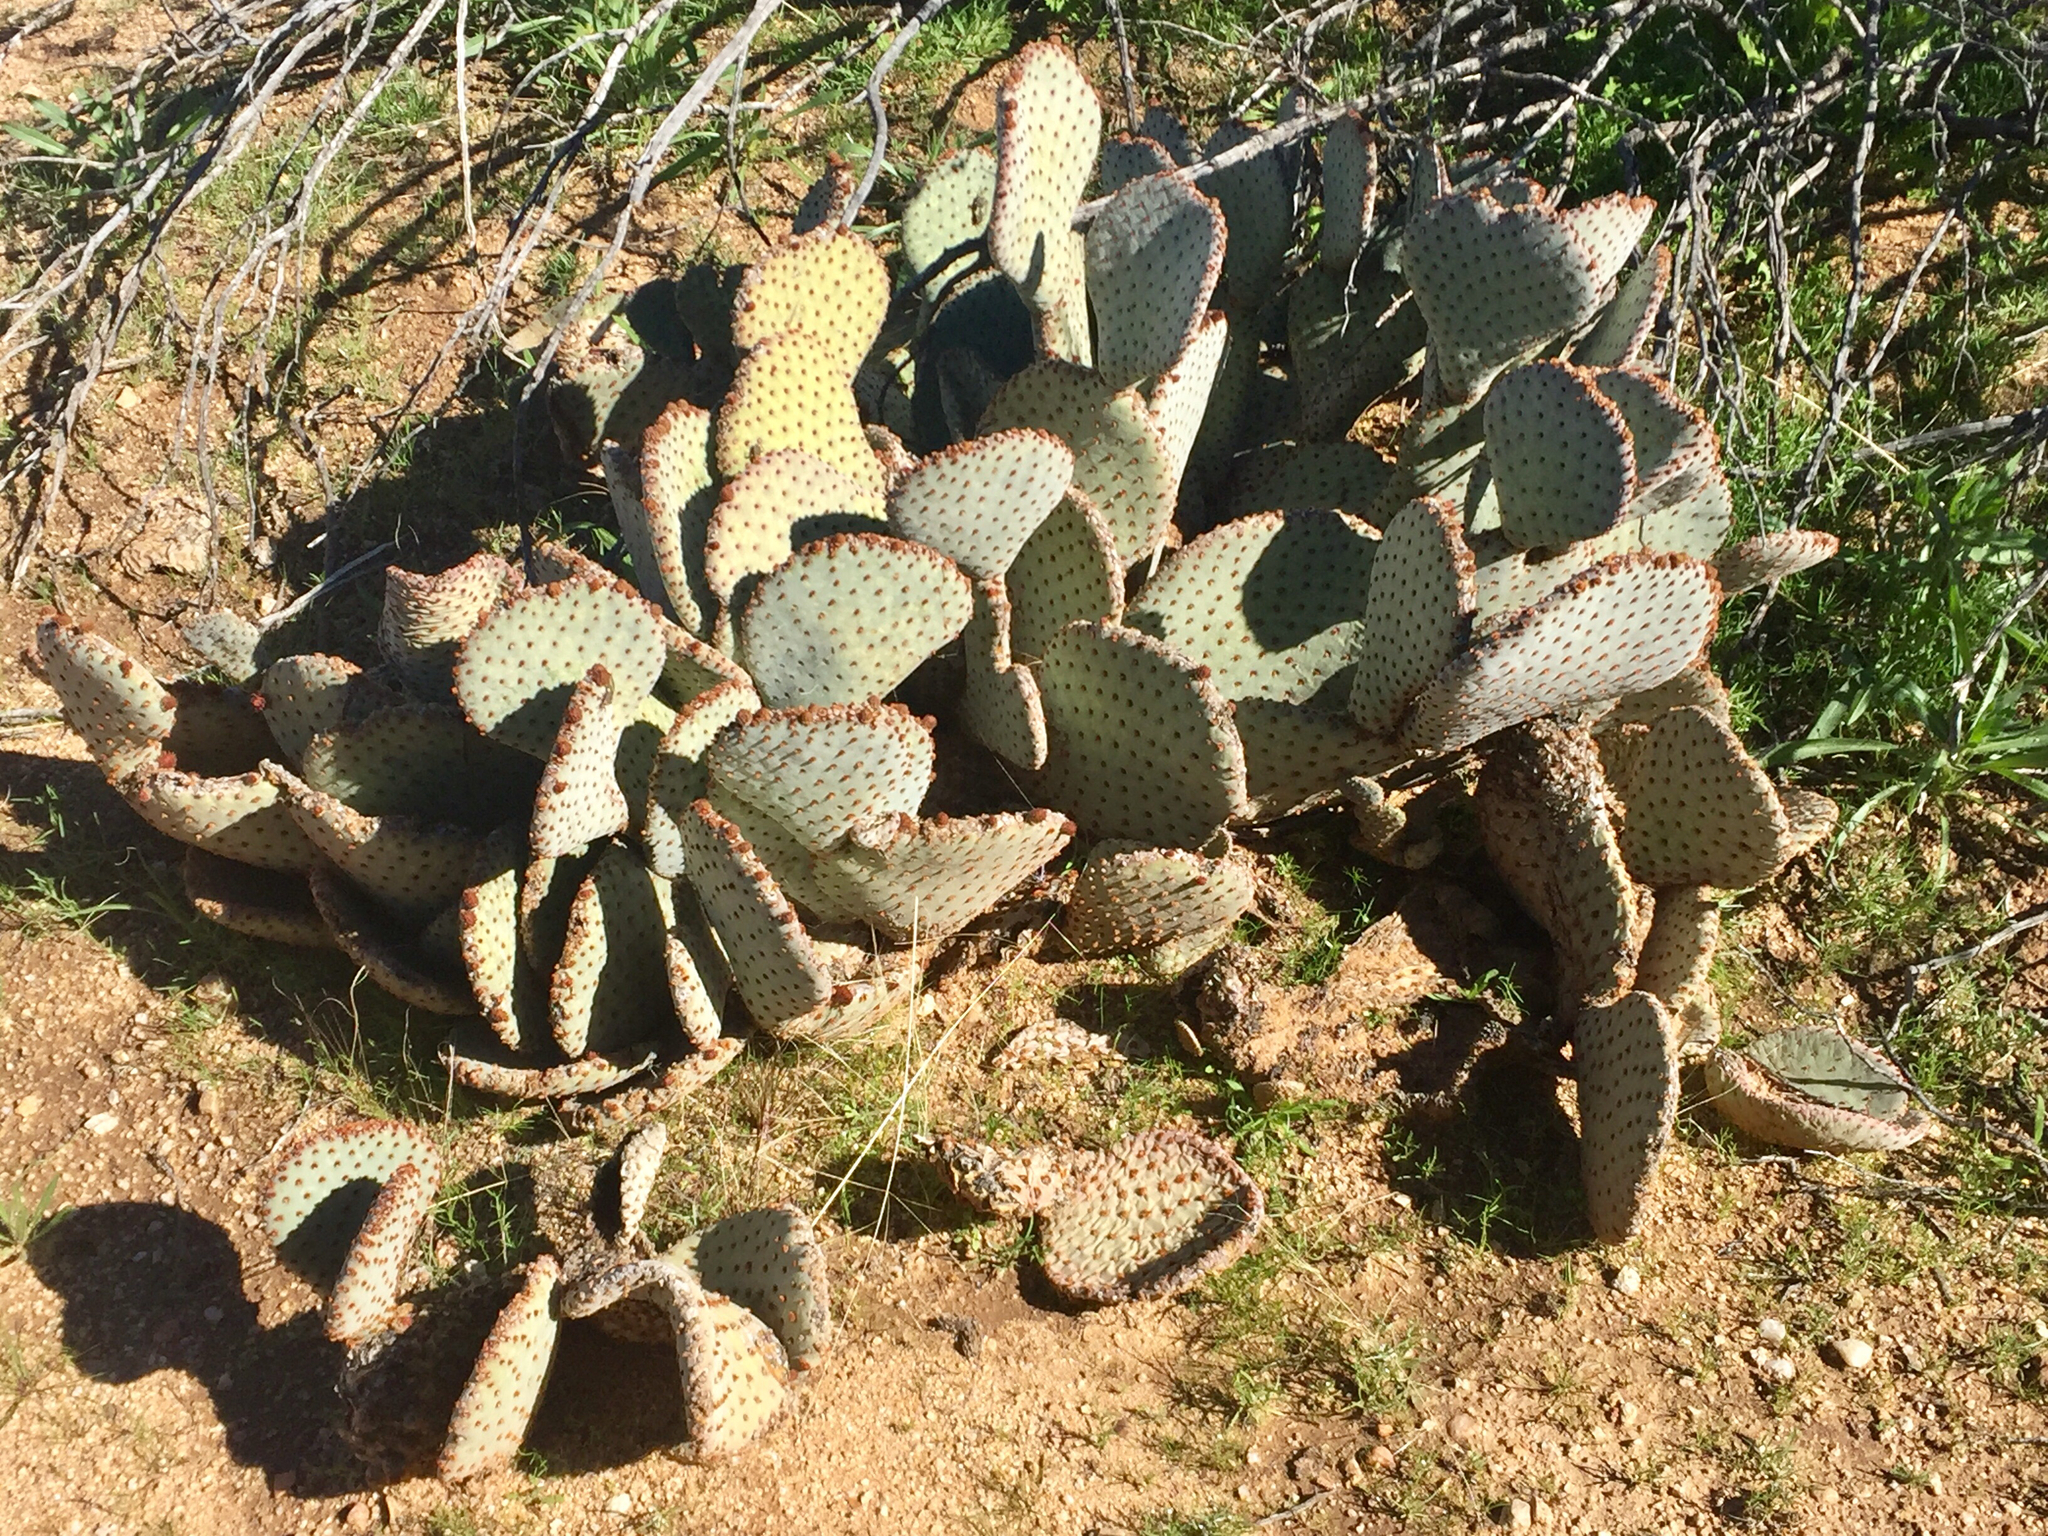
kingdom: Plantae
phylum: Tracheophyta
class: Magnoliopsida
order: Caryophyllales
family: Cactaceae
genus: Opuntia
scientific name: Opuntia basilaris
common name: Beavertail prickly-pear
